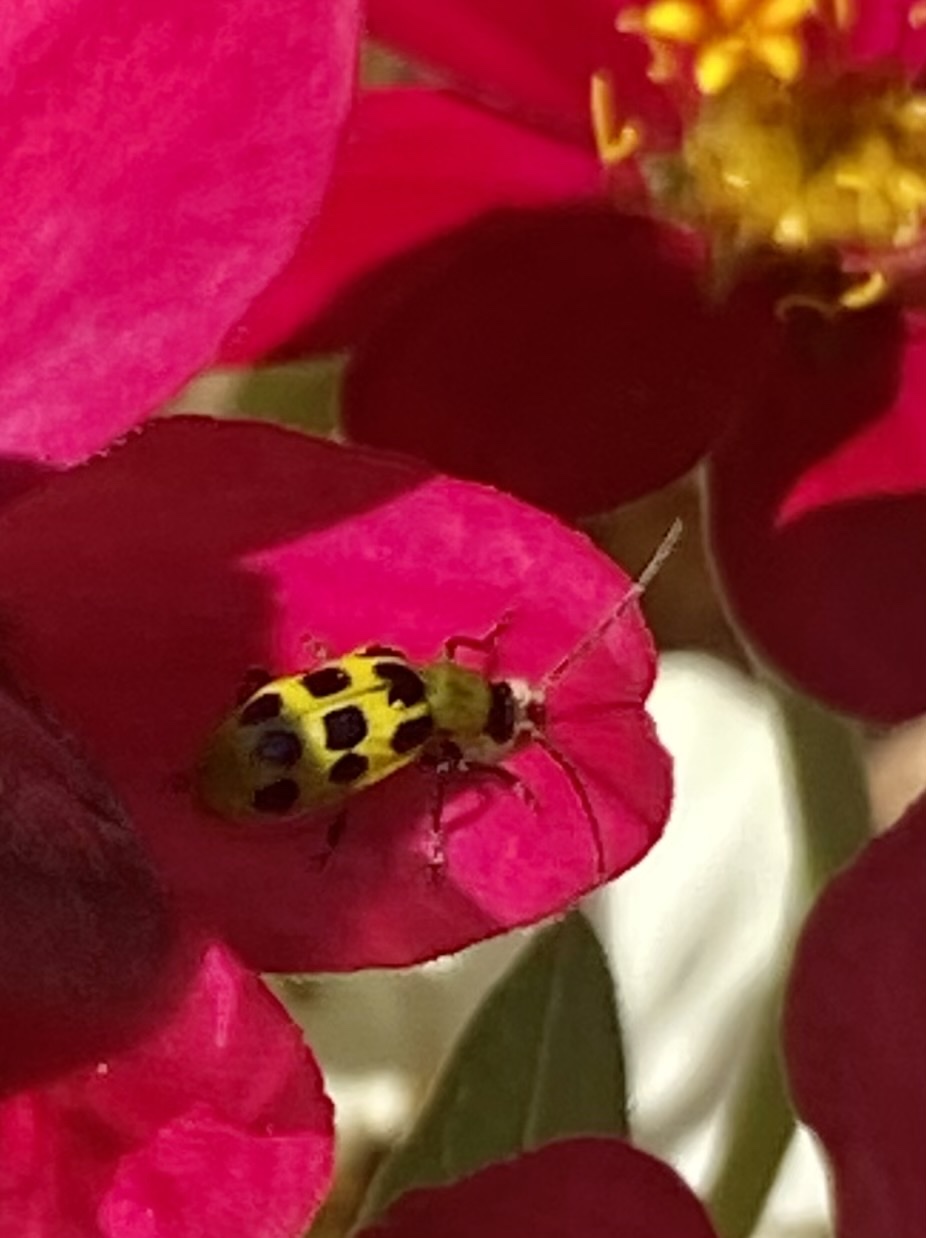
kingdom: Animalia
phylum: Arthropoda
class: Insecta
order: Coleoptera
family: Chrysomelidae
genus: Diabrotica
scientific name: Diabrotica undecimpunctata
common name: Spotted cucumber beetle
